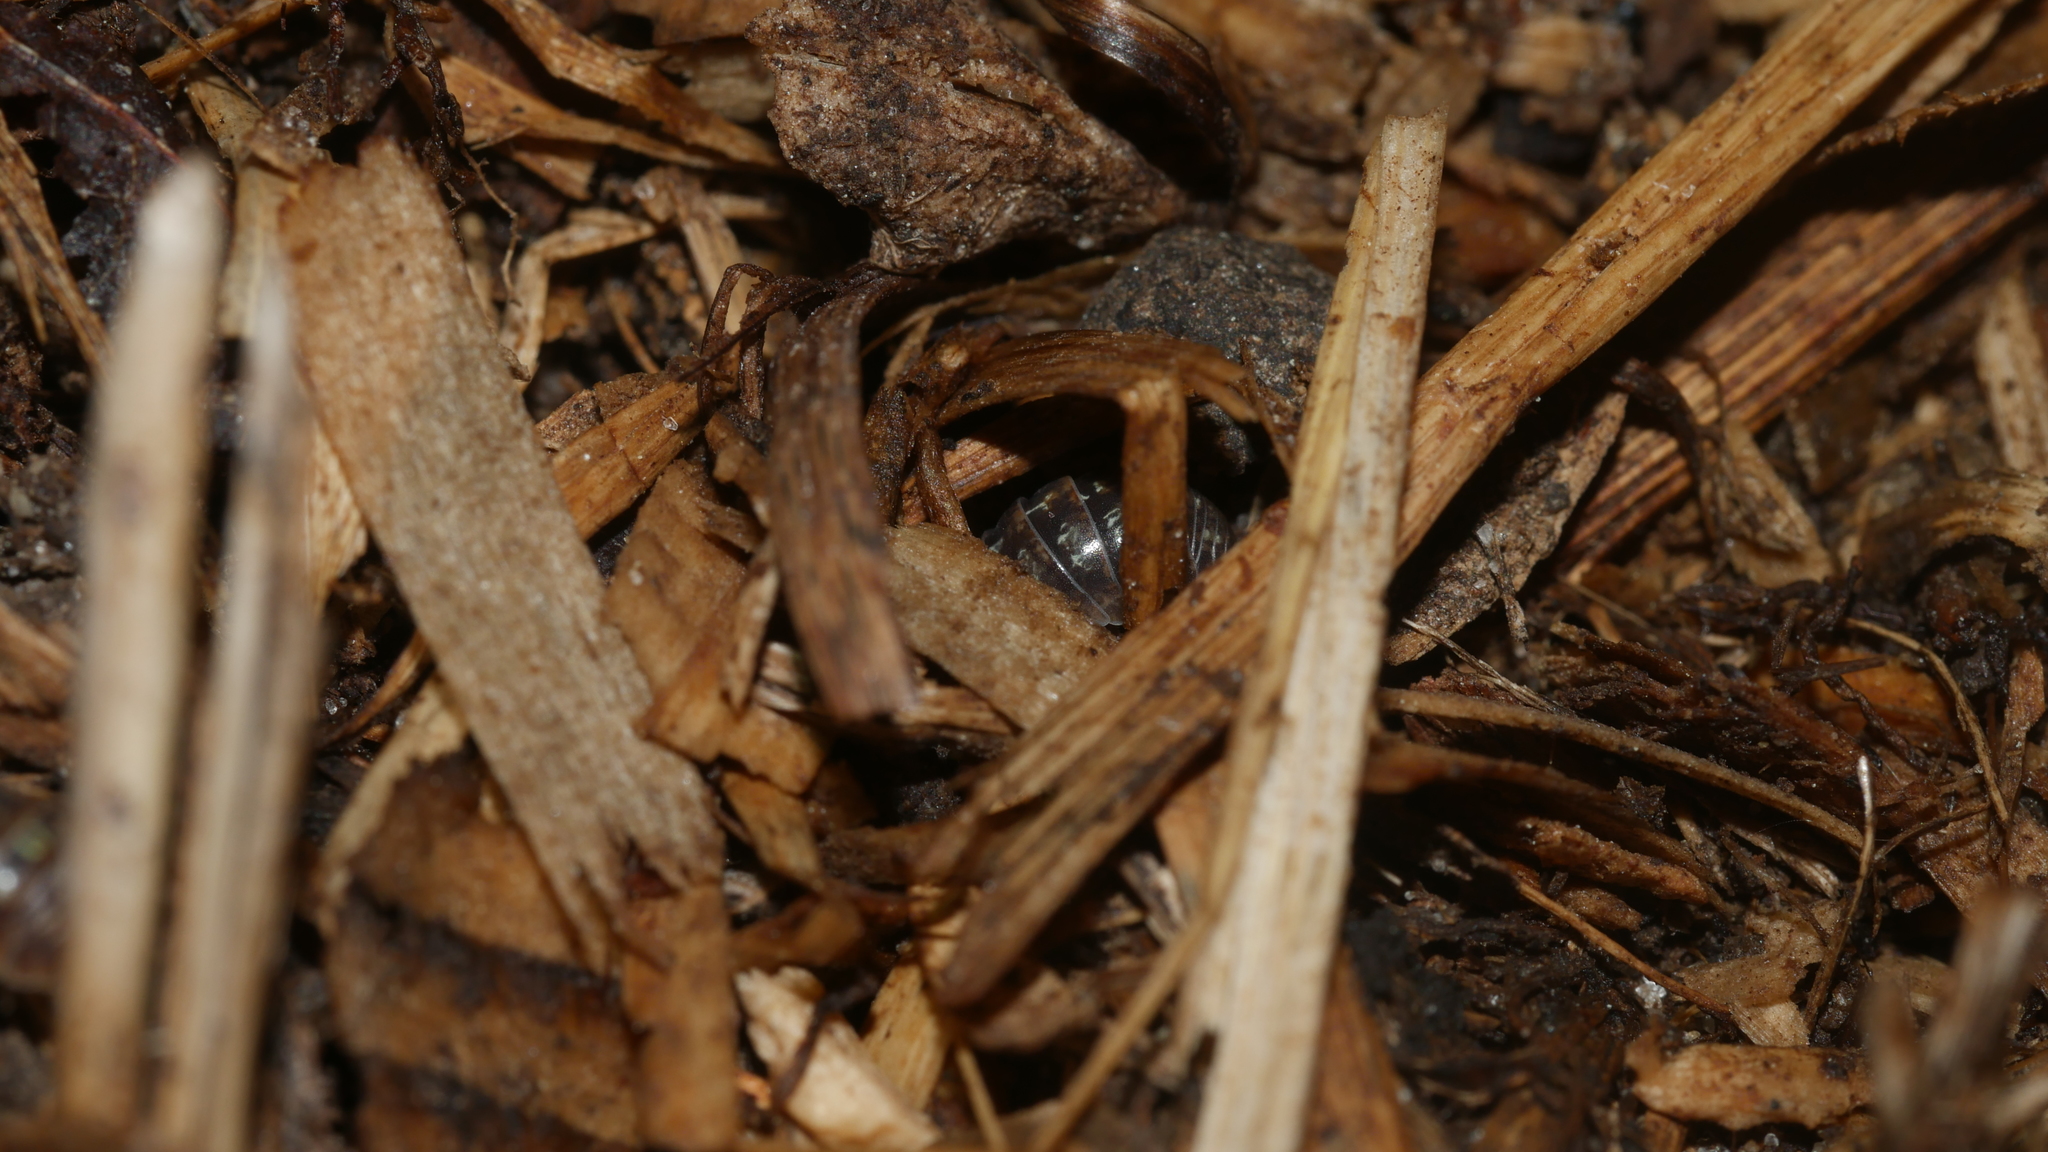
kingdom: Animalia
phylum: Arthropoda
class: Malacostraca
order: Isopoda
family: Armadillidiidae
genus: Armadillidium
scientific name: Armadillidium vulgare
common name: Common pill woodlouse
